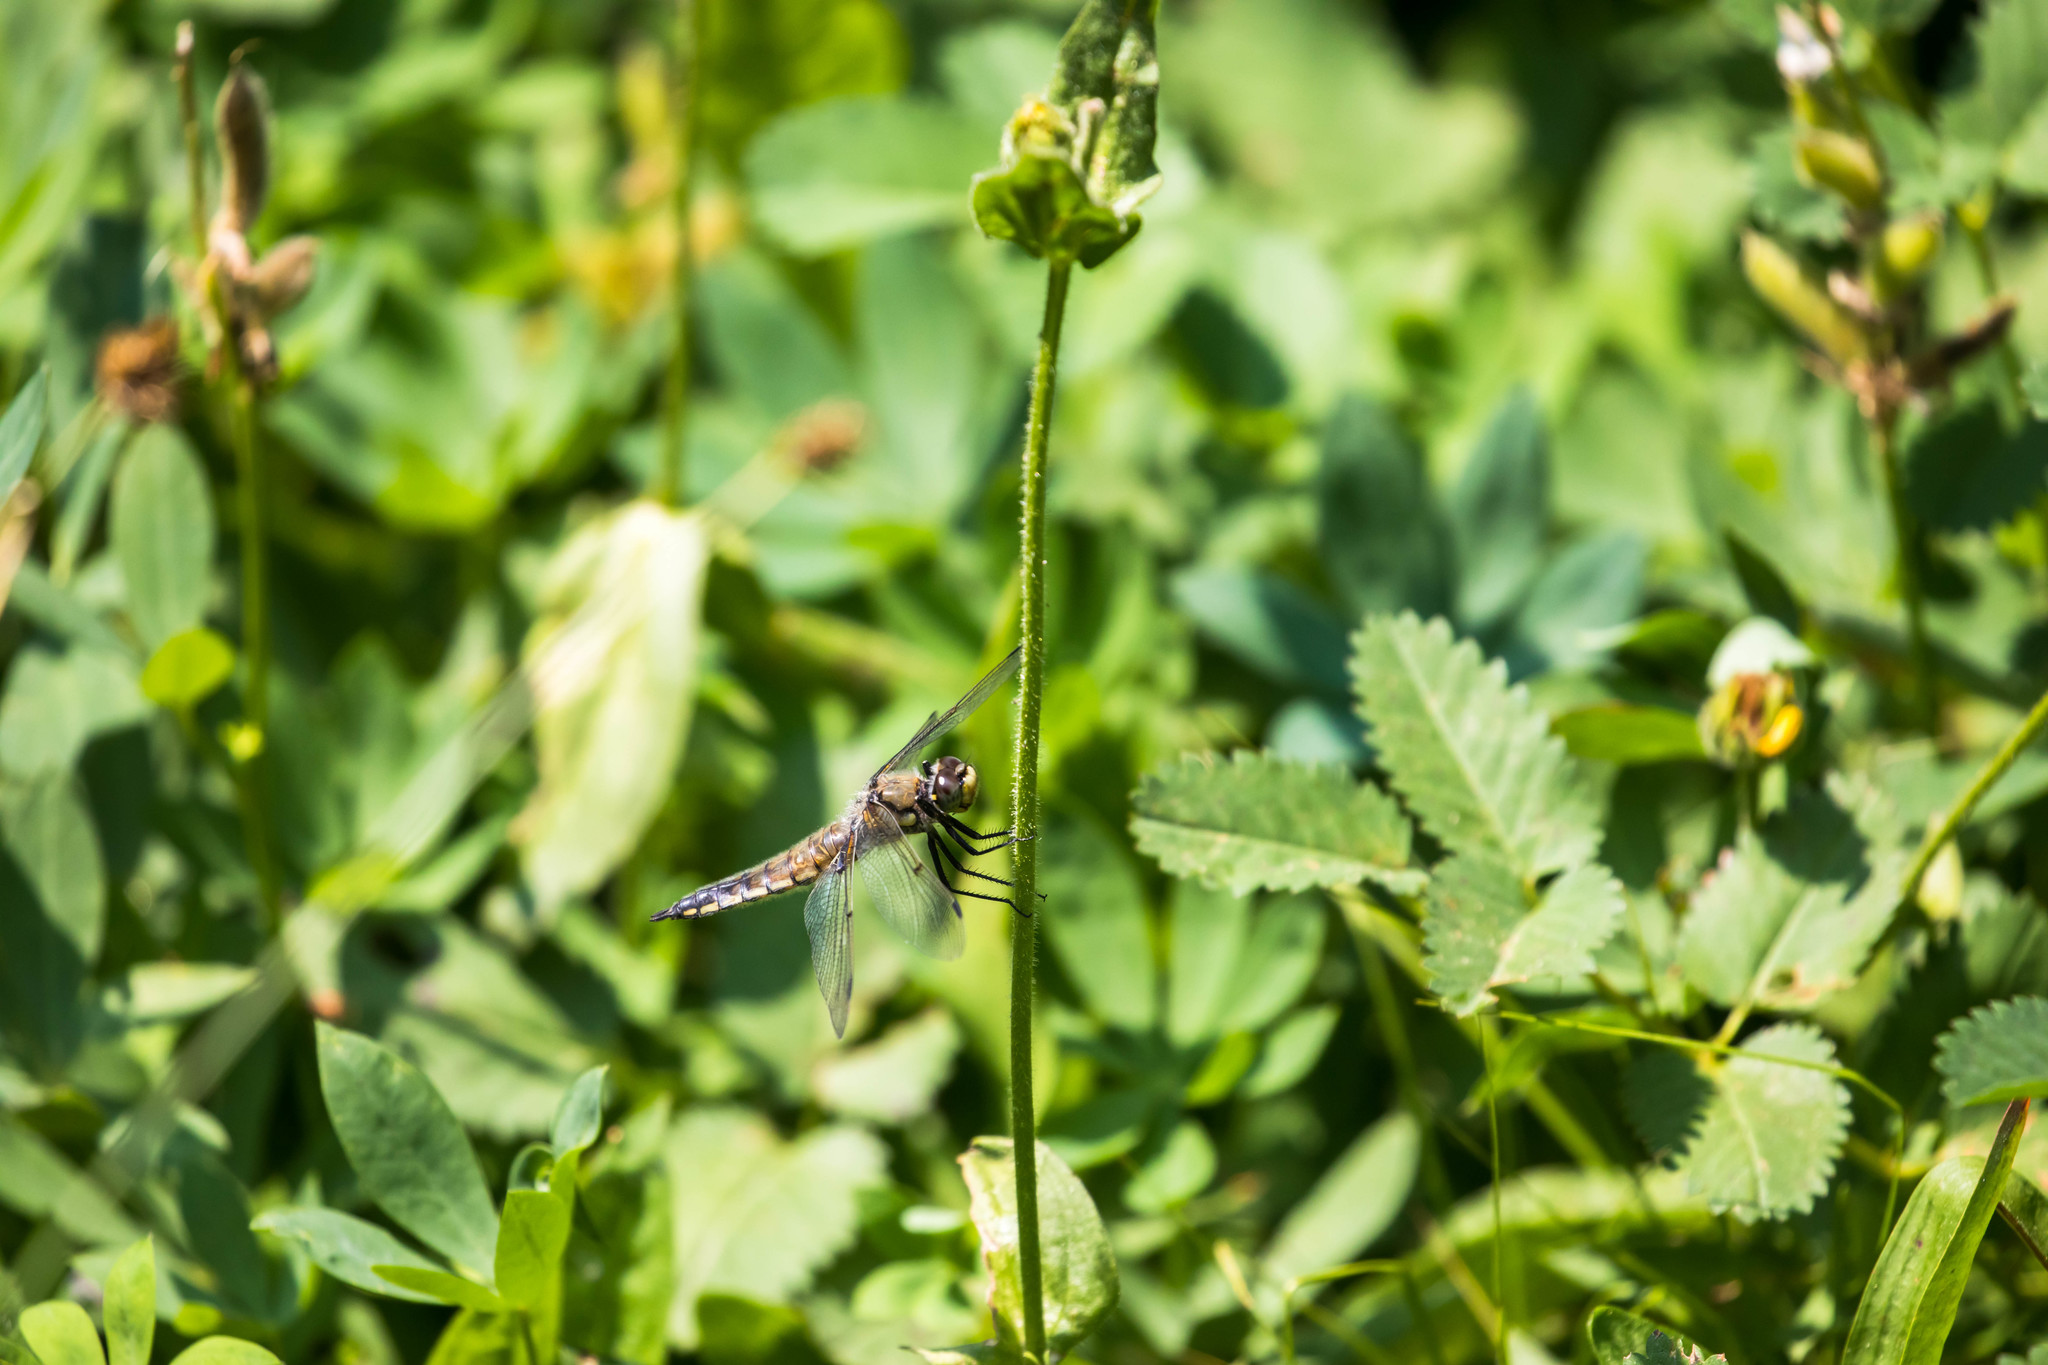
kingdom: Animalia
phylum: Arthropoda
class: Insecta
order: Odonata
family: Libellulidae
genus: Libellula
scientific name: Libellula quadrimaculata
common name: Four-spotted chaser
